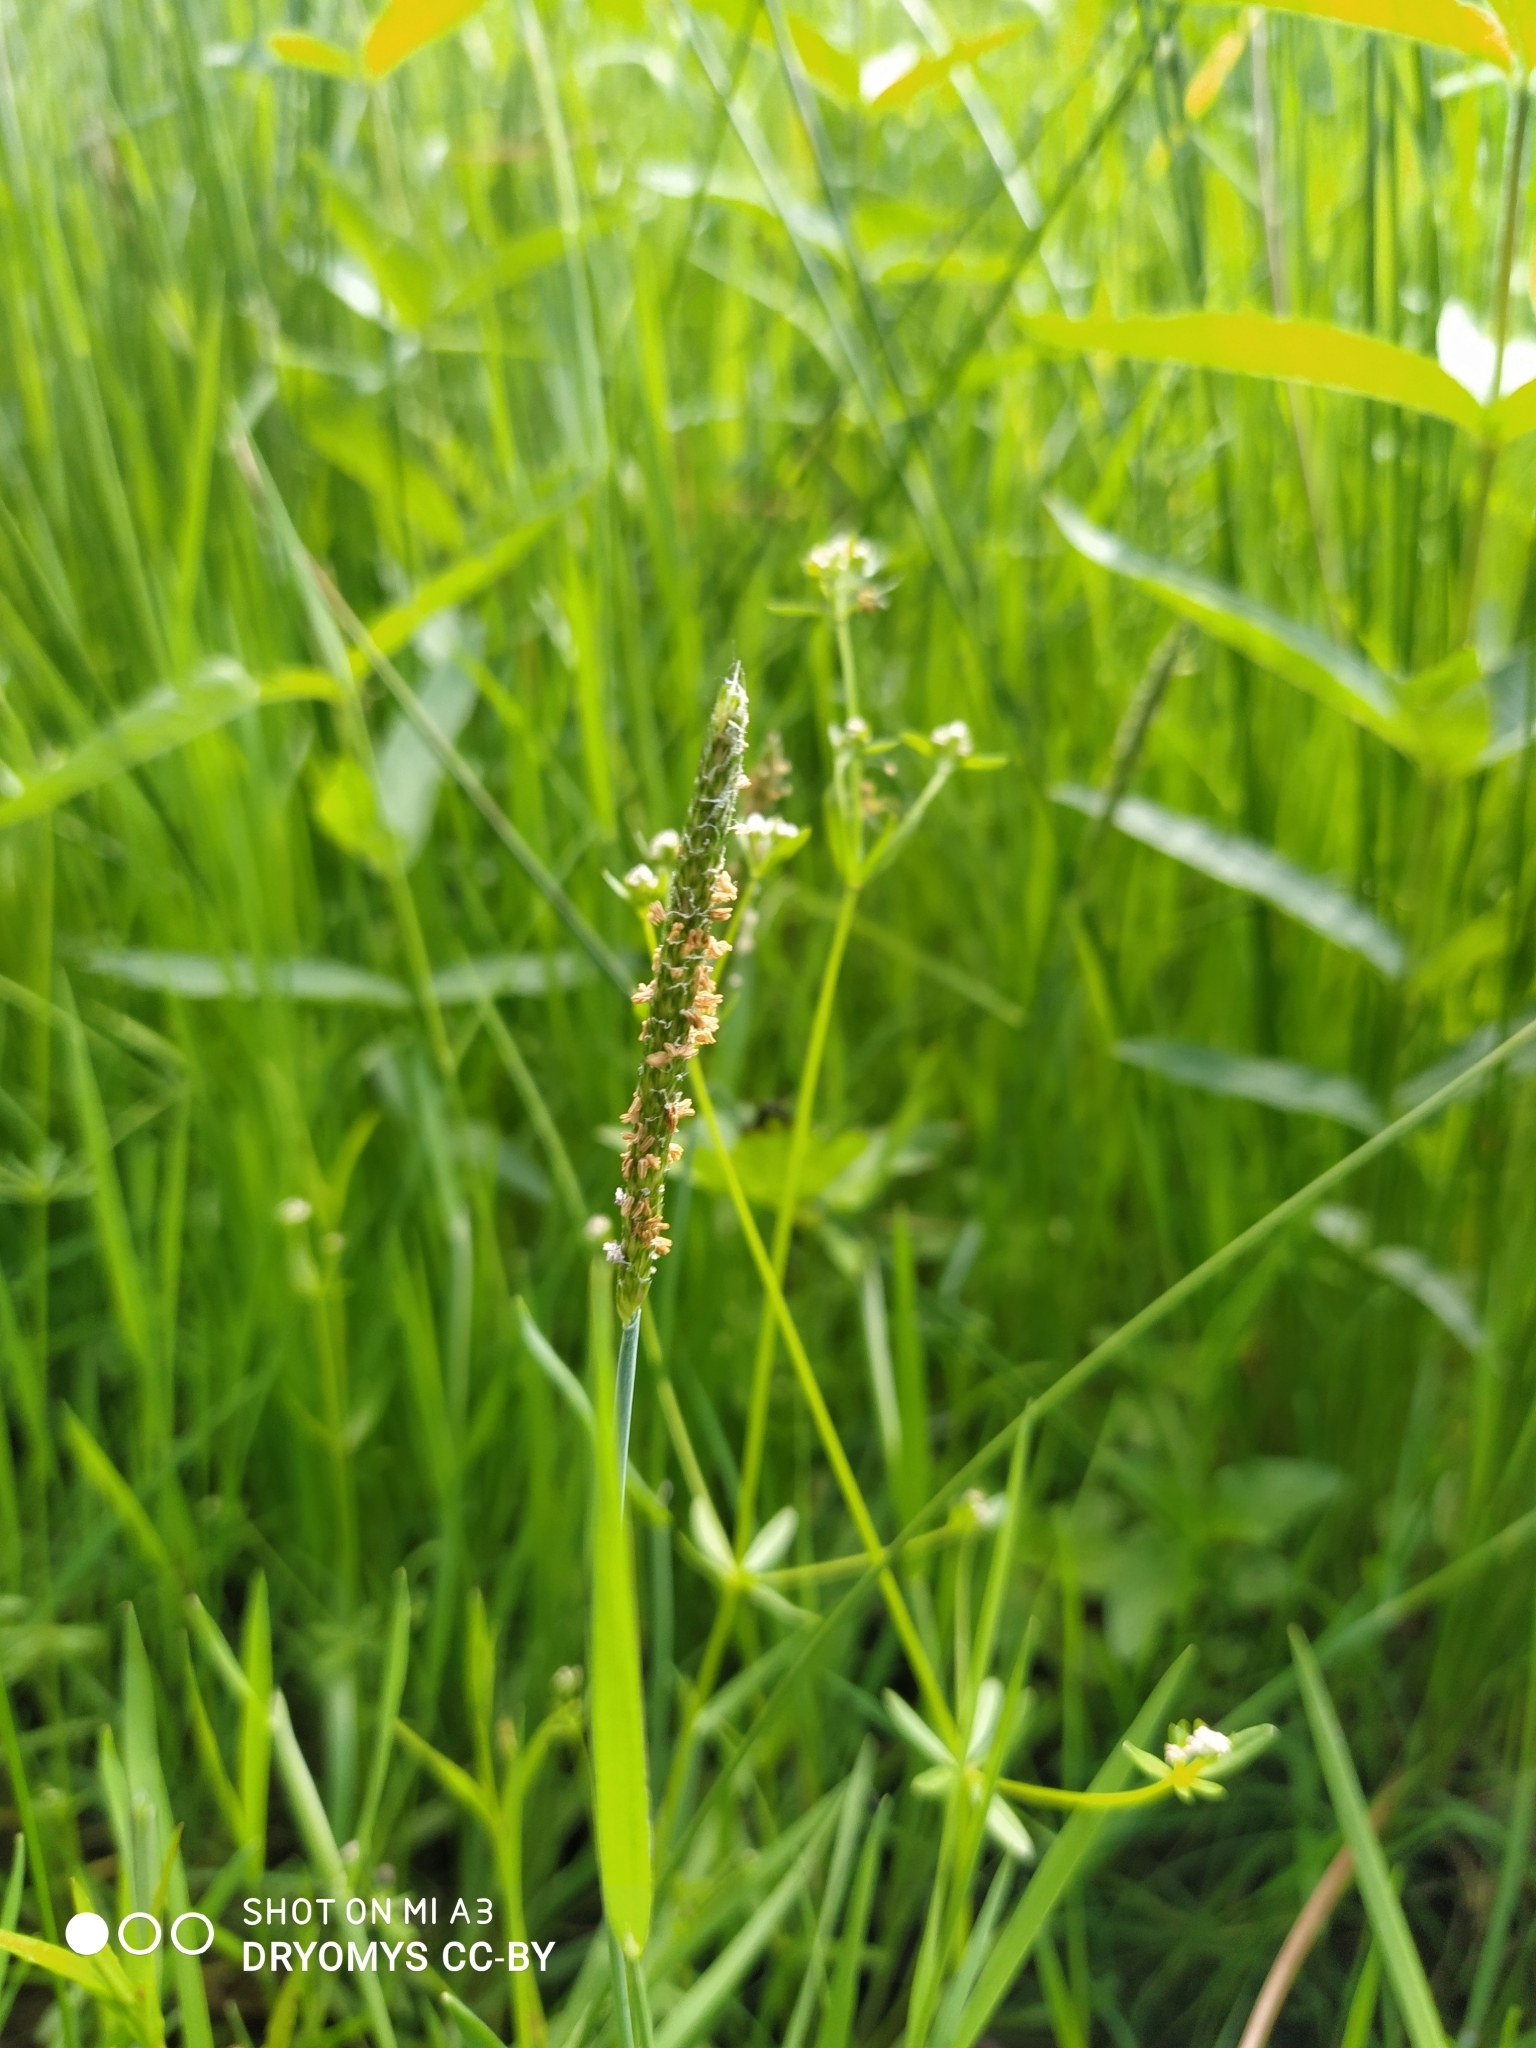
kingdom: Plantae
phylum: Tracheophyta
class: Liliopsida
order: Poales
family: Poaceae
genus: Alopecurus
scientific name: Alopecurus aequalis
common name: Orange foxtail
